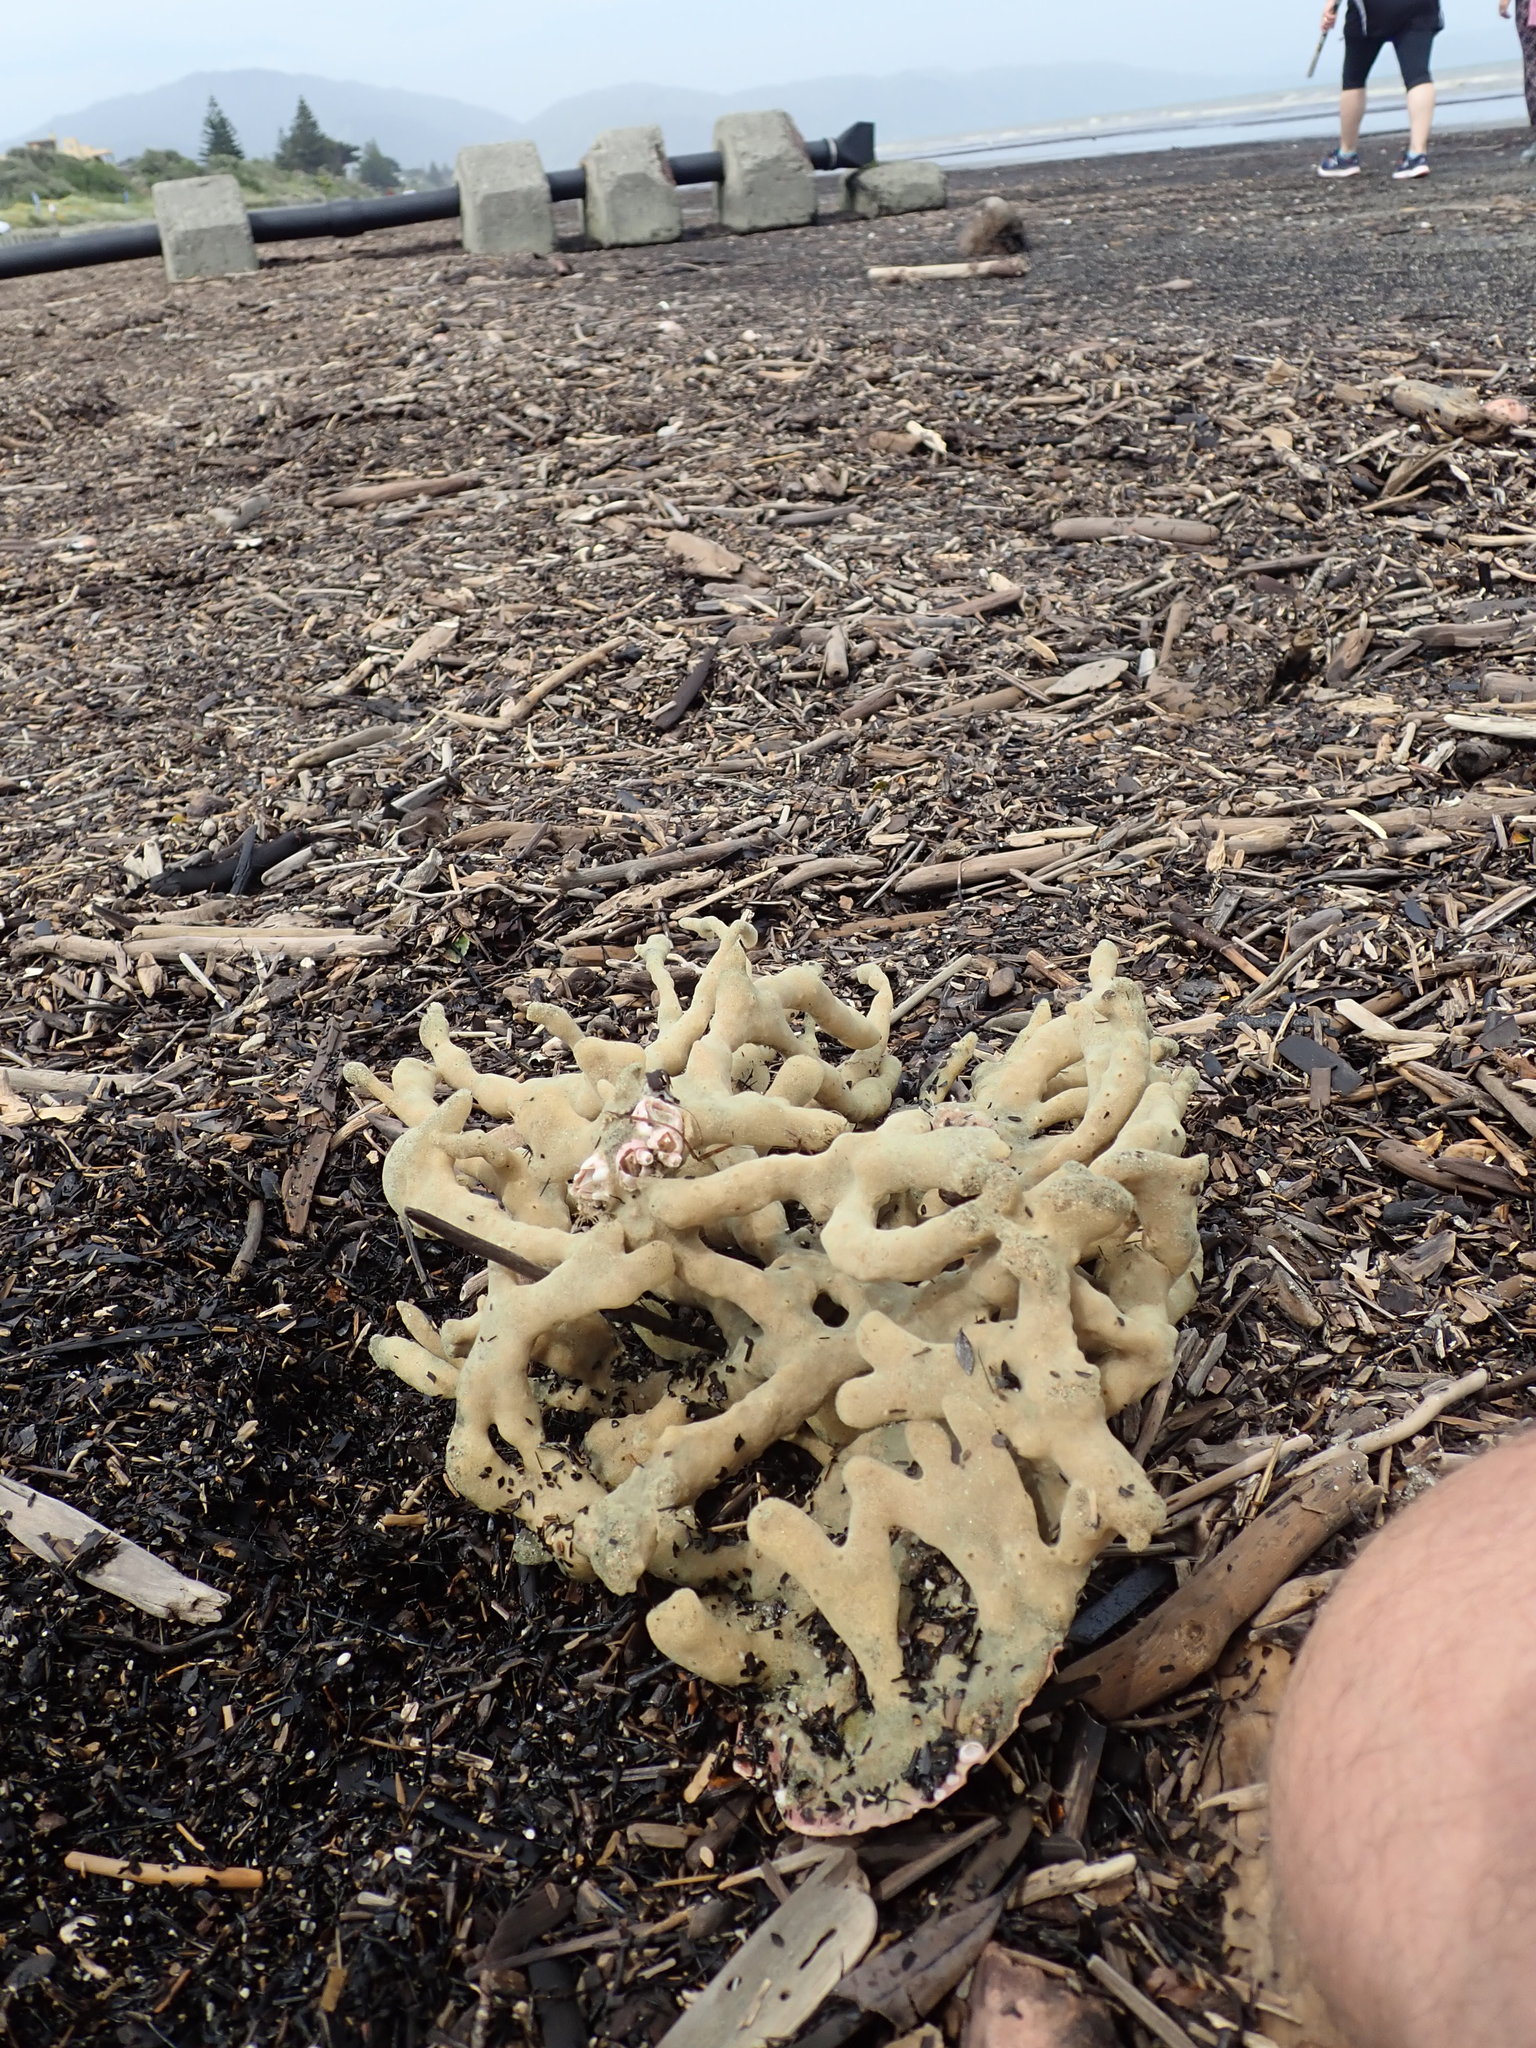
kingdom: Animalia
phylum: Arthropoda
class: Maxillopoda
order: Sessilia
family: Balanidae
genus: Notomegabalanus
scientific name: Notomegabalanus decorus
